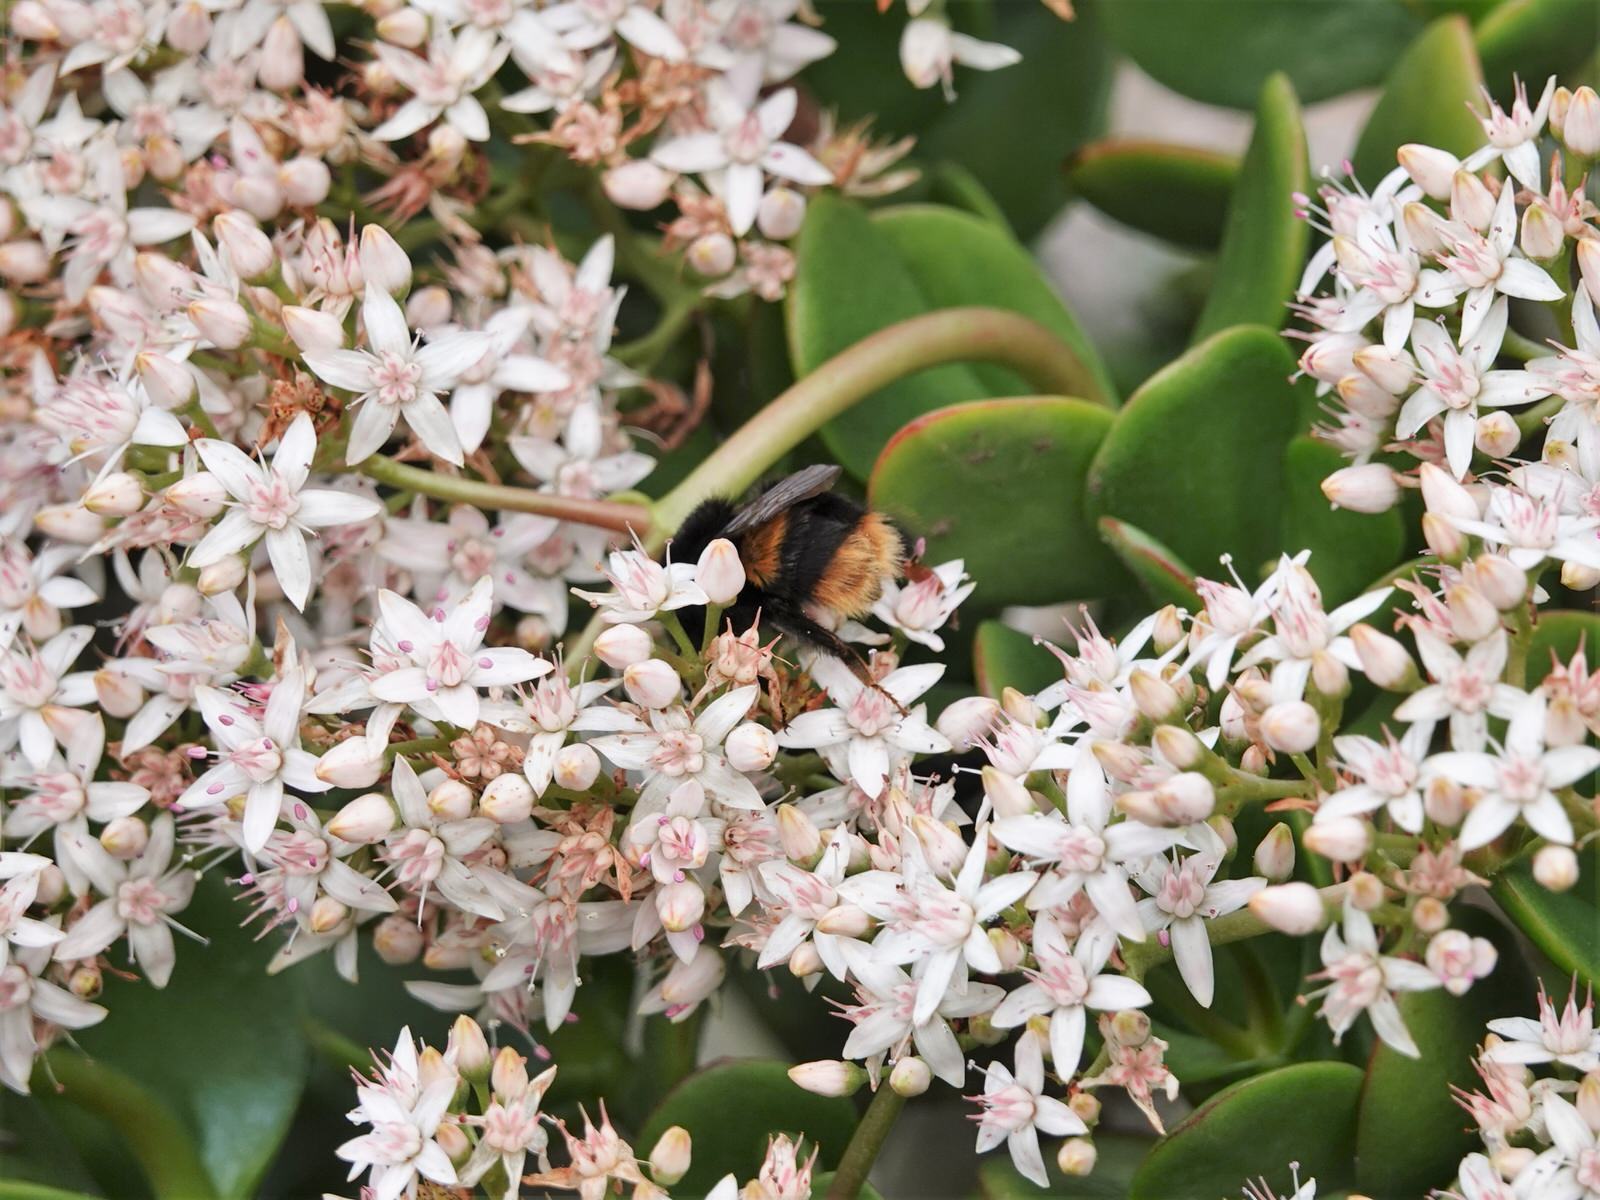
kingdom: Animalia
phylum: Arthropoda
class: Insecta
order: Hymenoptera
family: Apidae
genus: Bombus
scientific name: Bombus terrestris
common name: Buff-tailed bumblebee
